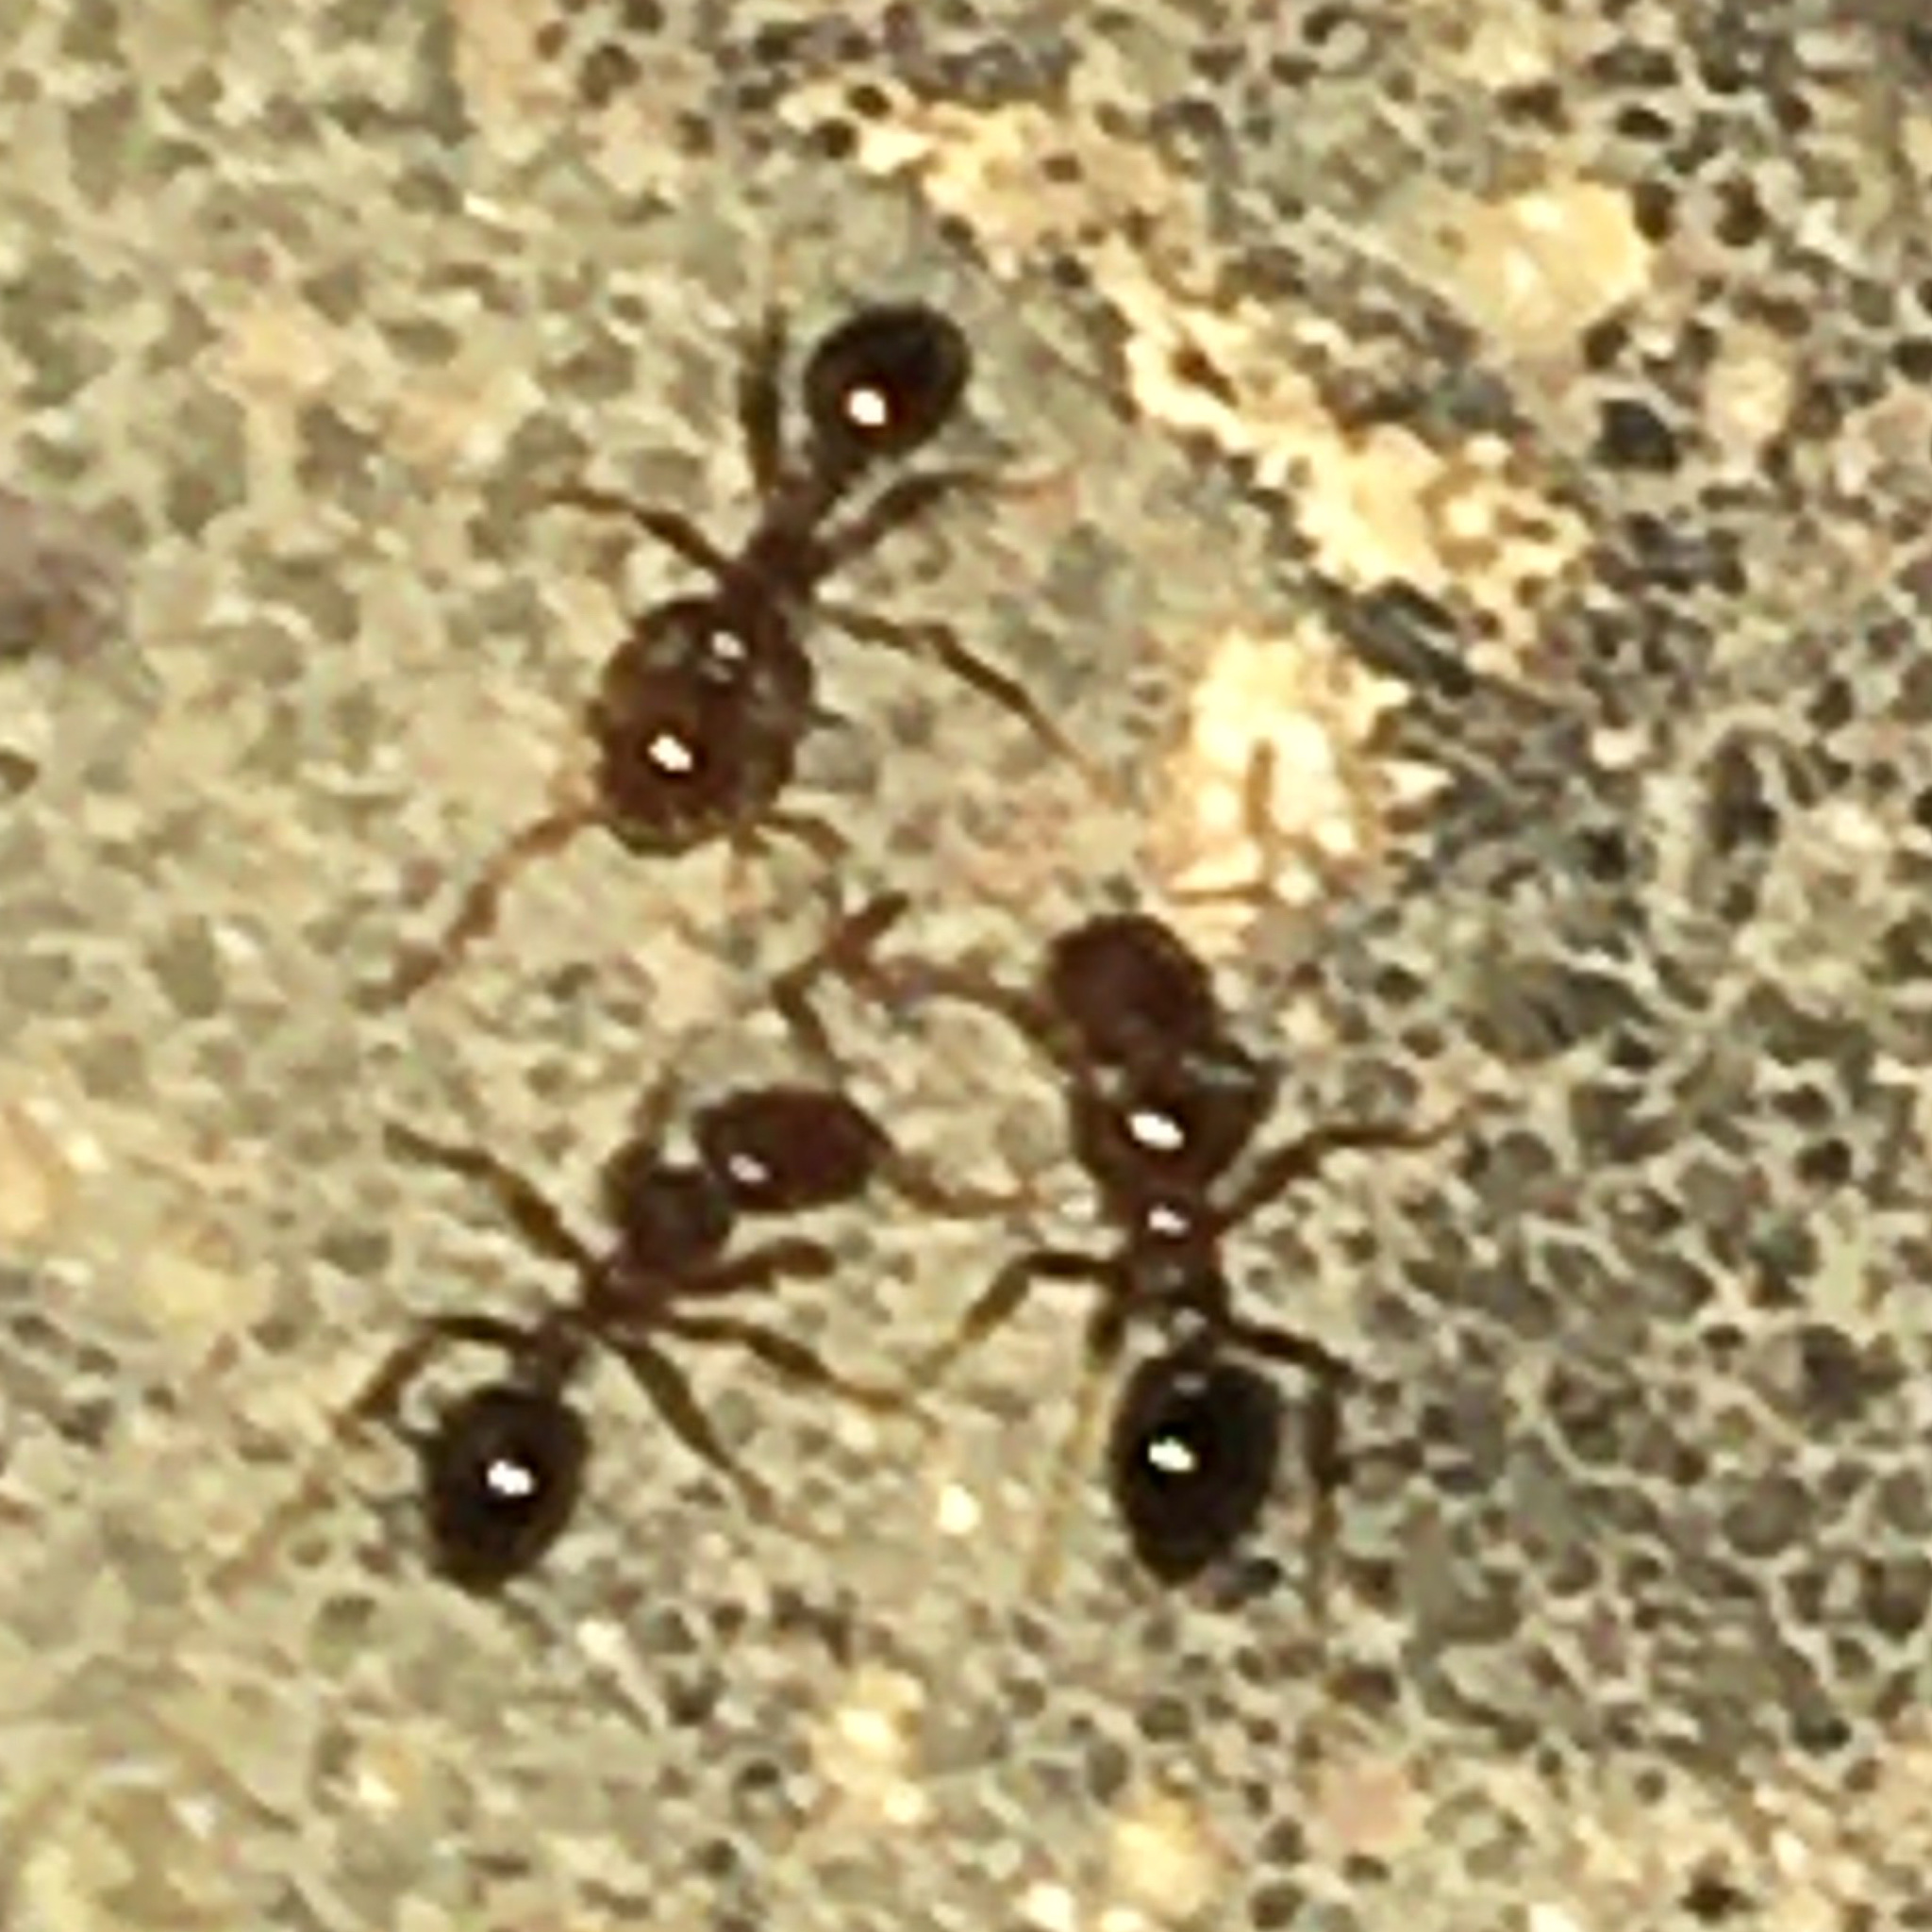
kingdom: Animalia
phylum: Arthropoda
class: Insecta
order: Hymenoptera
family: Formicidae
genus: Solenopsis
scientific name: Solenopsis invicta
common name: Red imported fire ant
